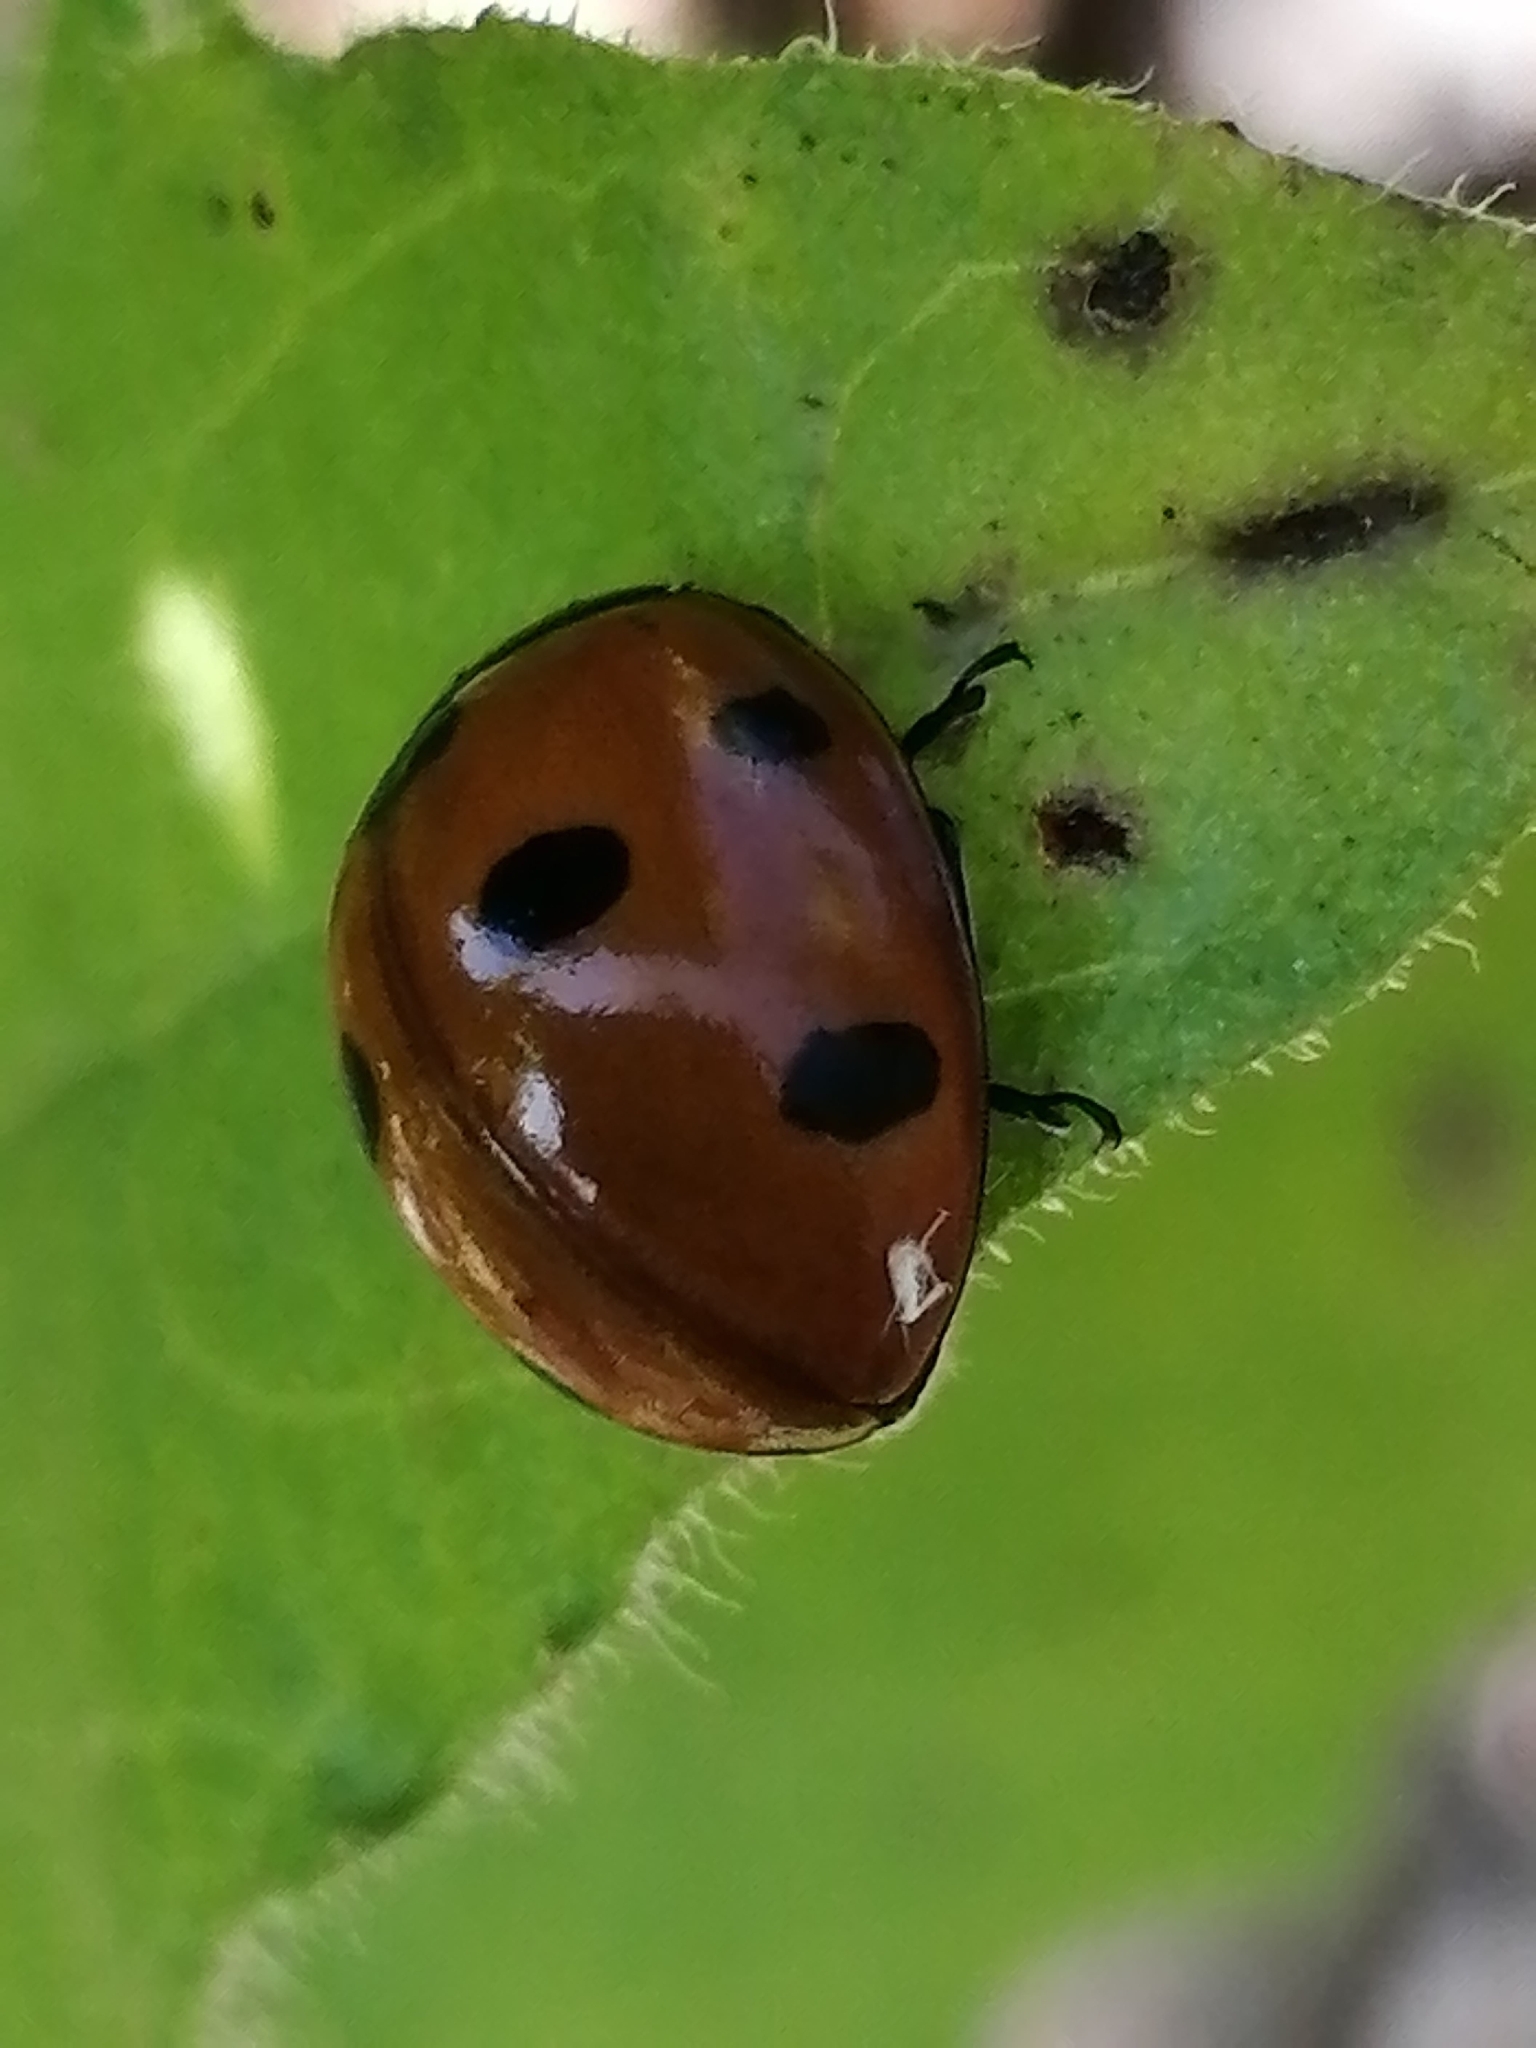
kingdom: Animalia
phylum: Arthropoda
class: Insecta
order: Coleoptera
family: Coccinellidae
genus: Coccinella
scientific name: Coccinella septempunctata
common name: Sevenspotted lady beetle
